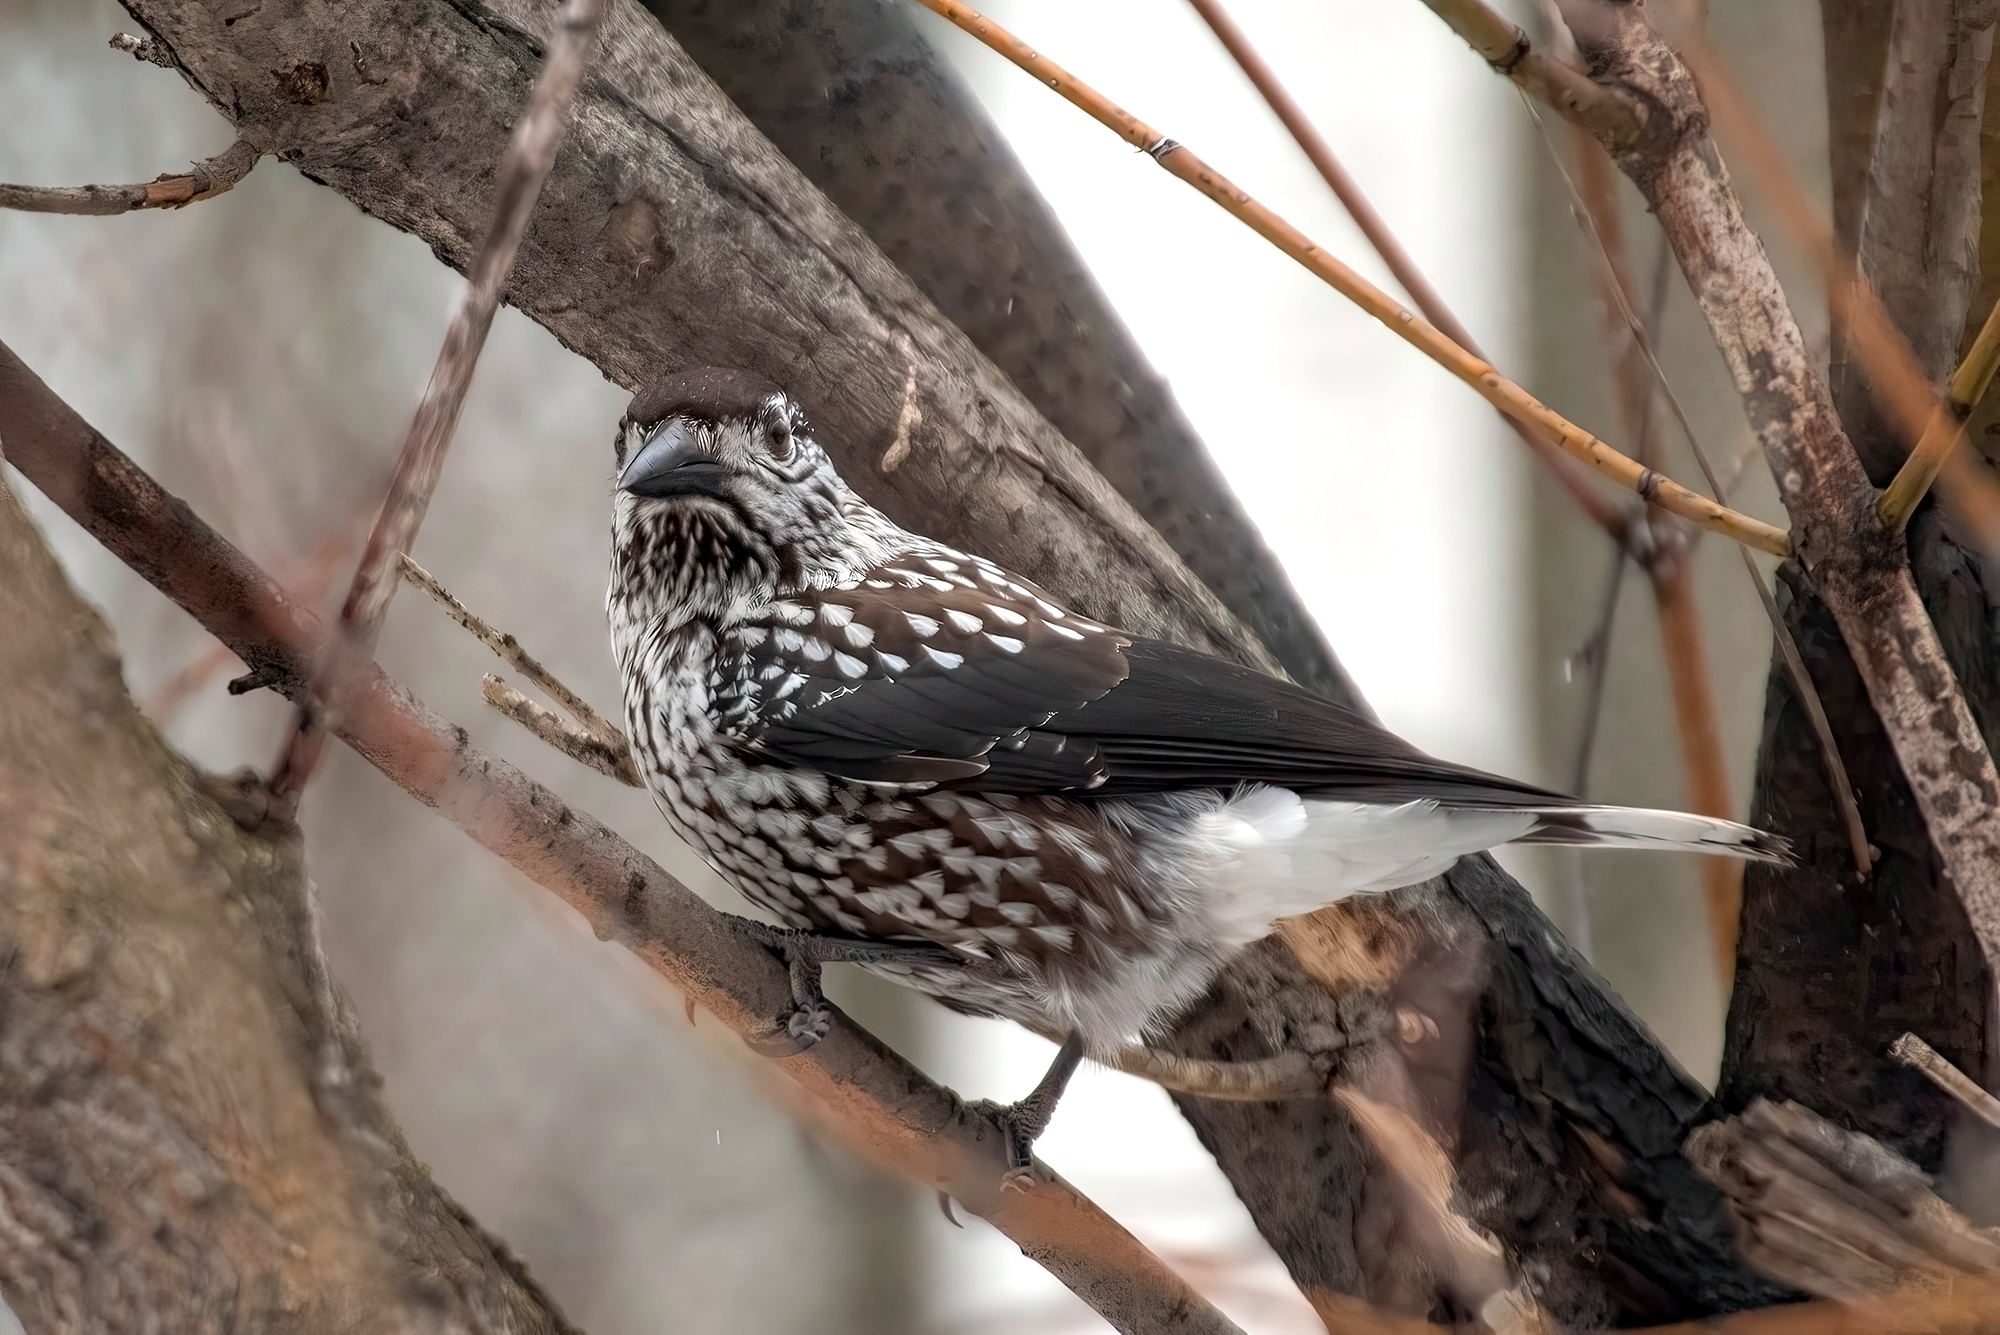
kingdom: Animalia
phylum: Chordata
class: Aves
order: Passeriformes
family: Corvidae
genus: Nucifraga
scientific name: Nucifraga caryocatactes
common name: Spotted nutcracker
